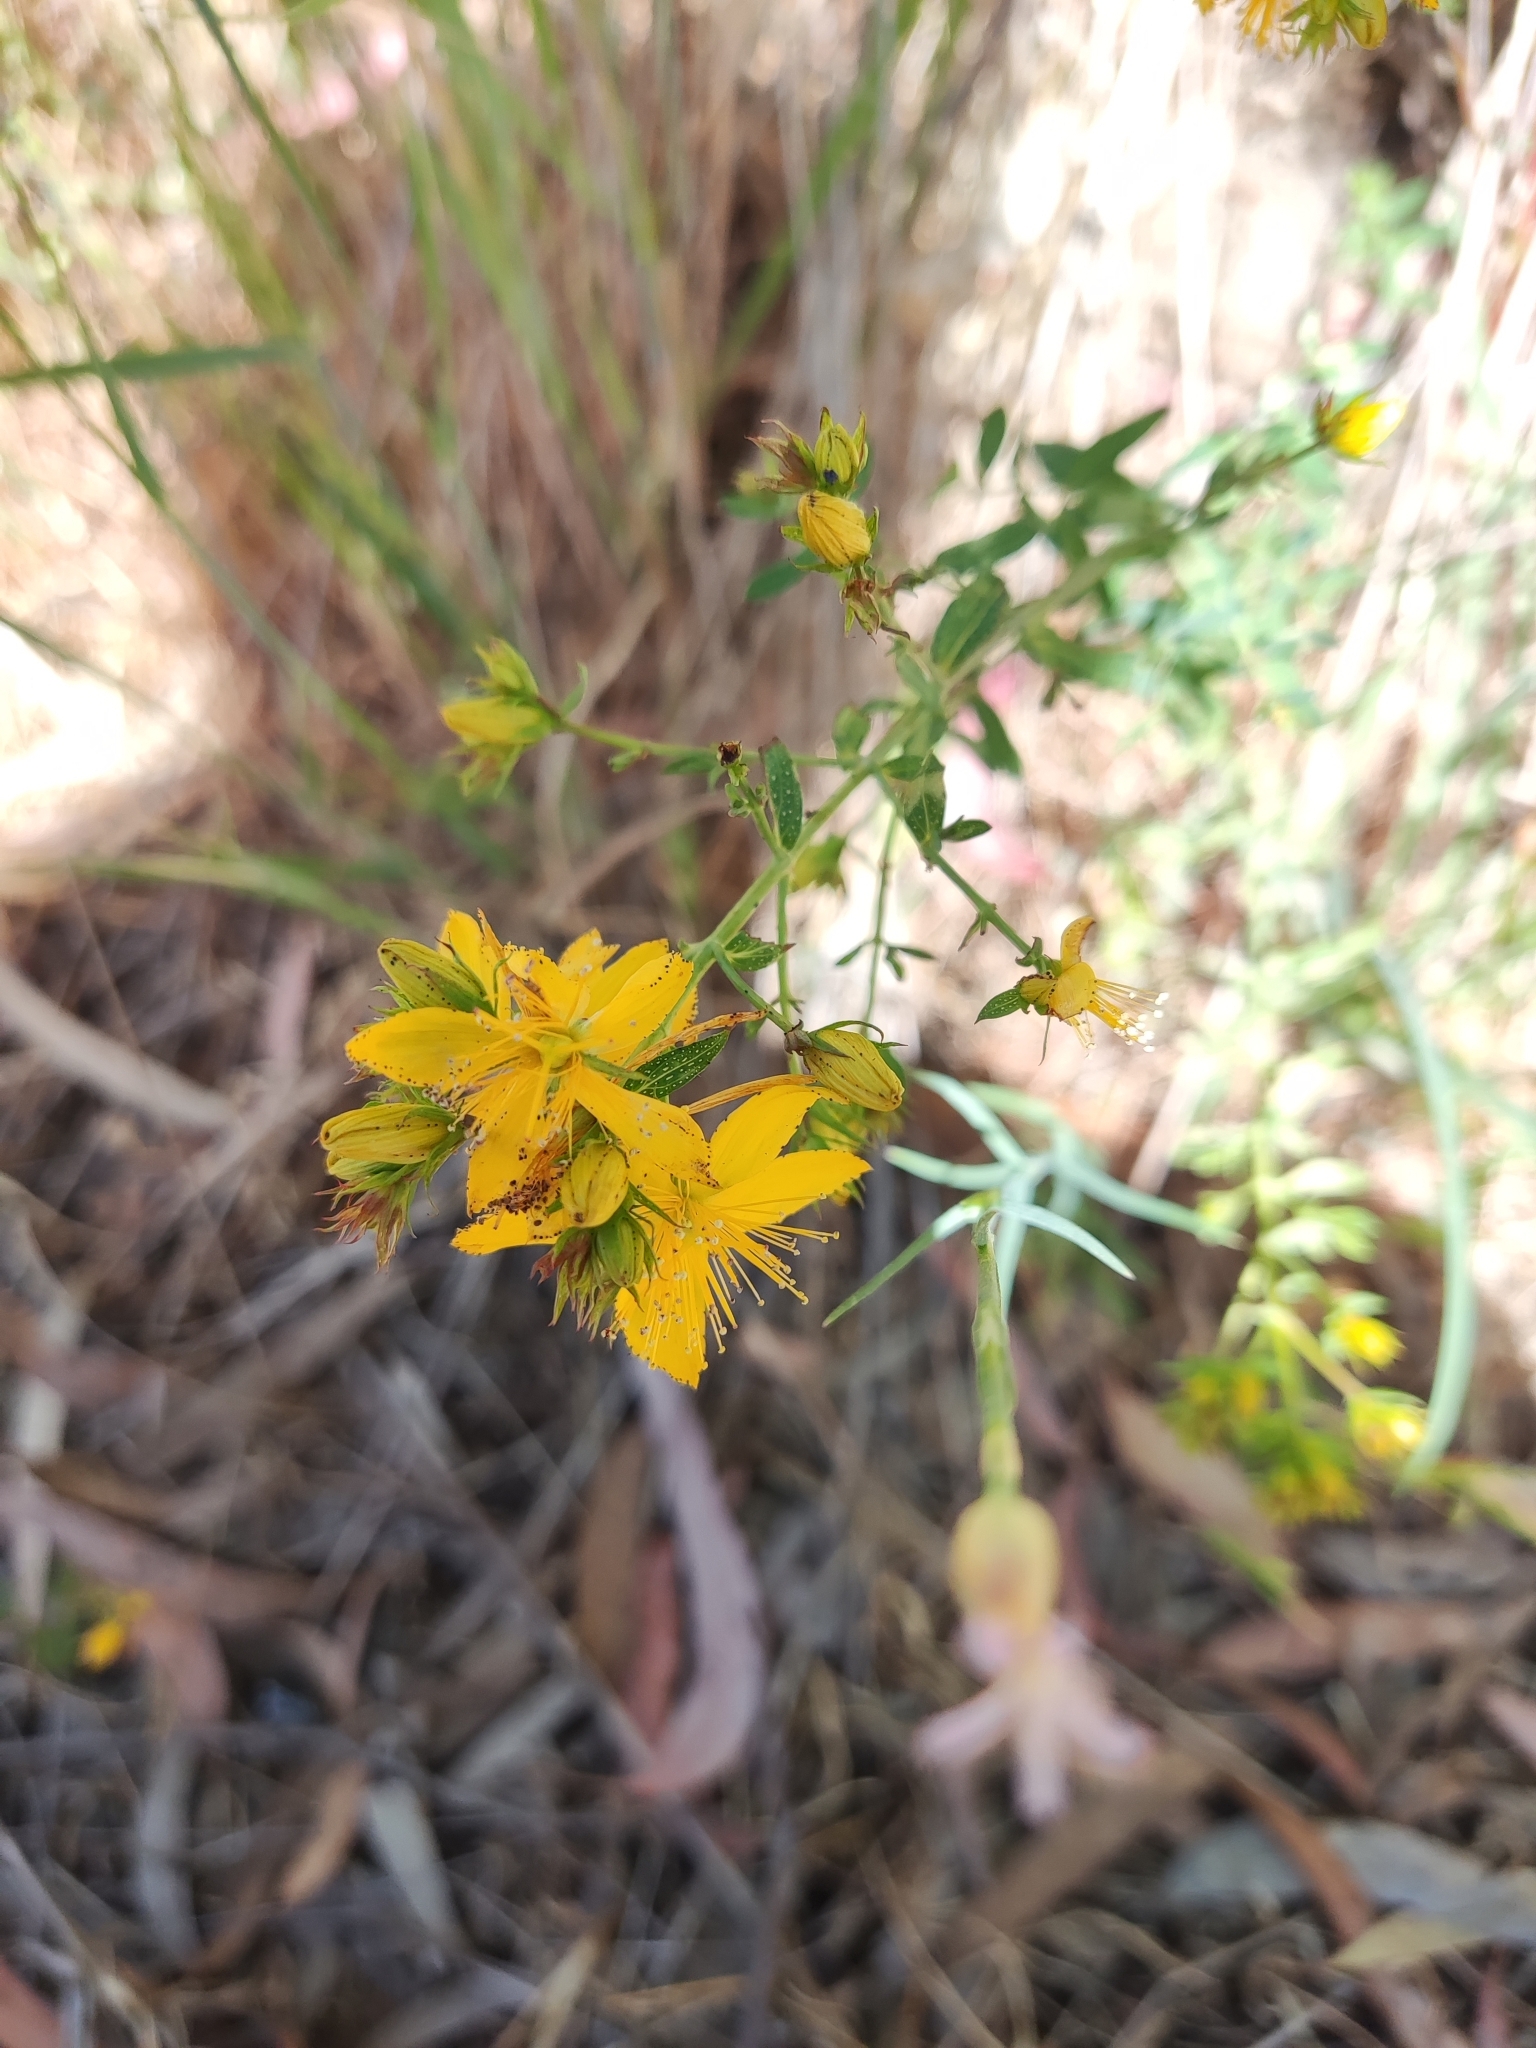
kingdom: Plantae
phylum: Tracheophyta
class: Magnoliopsida
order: Malpighiales
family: Hypericaceae
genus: Hypericum
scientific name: Hypericum perforatum
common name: Common st. johnswort
